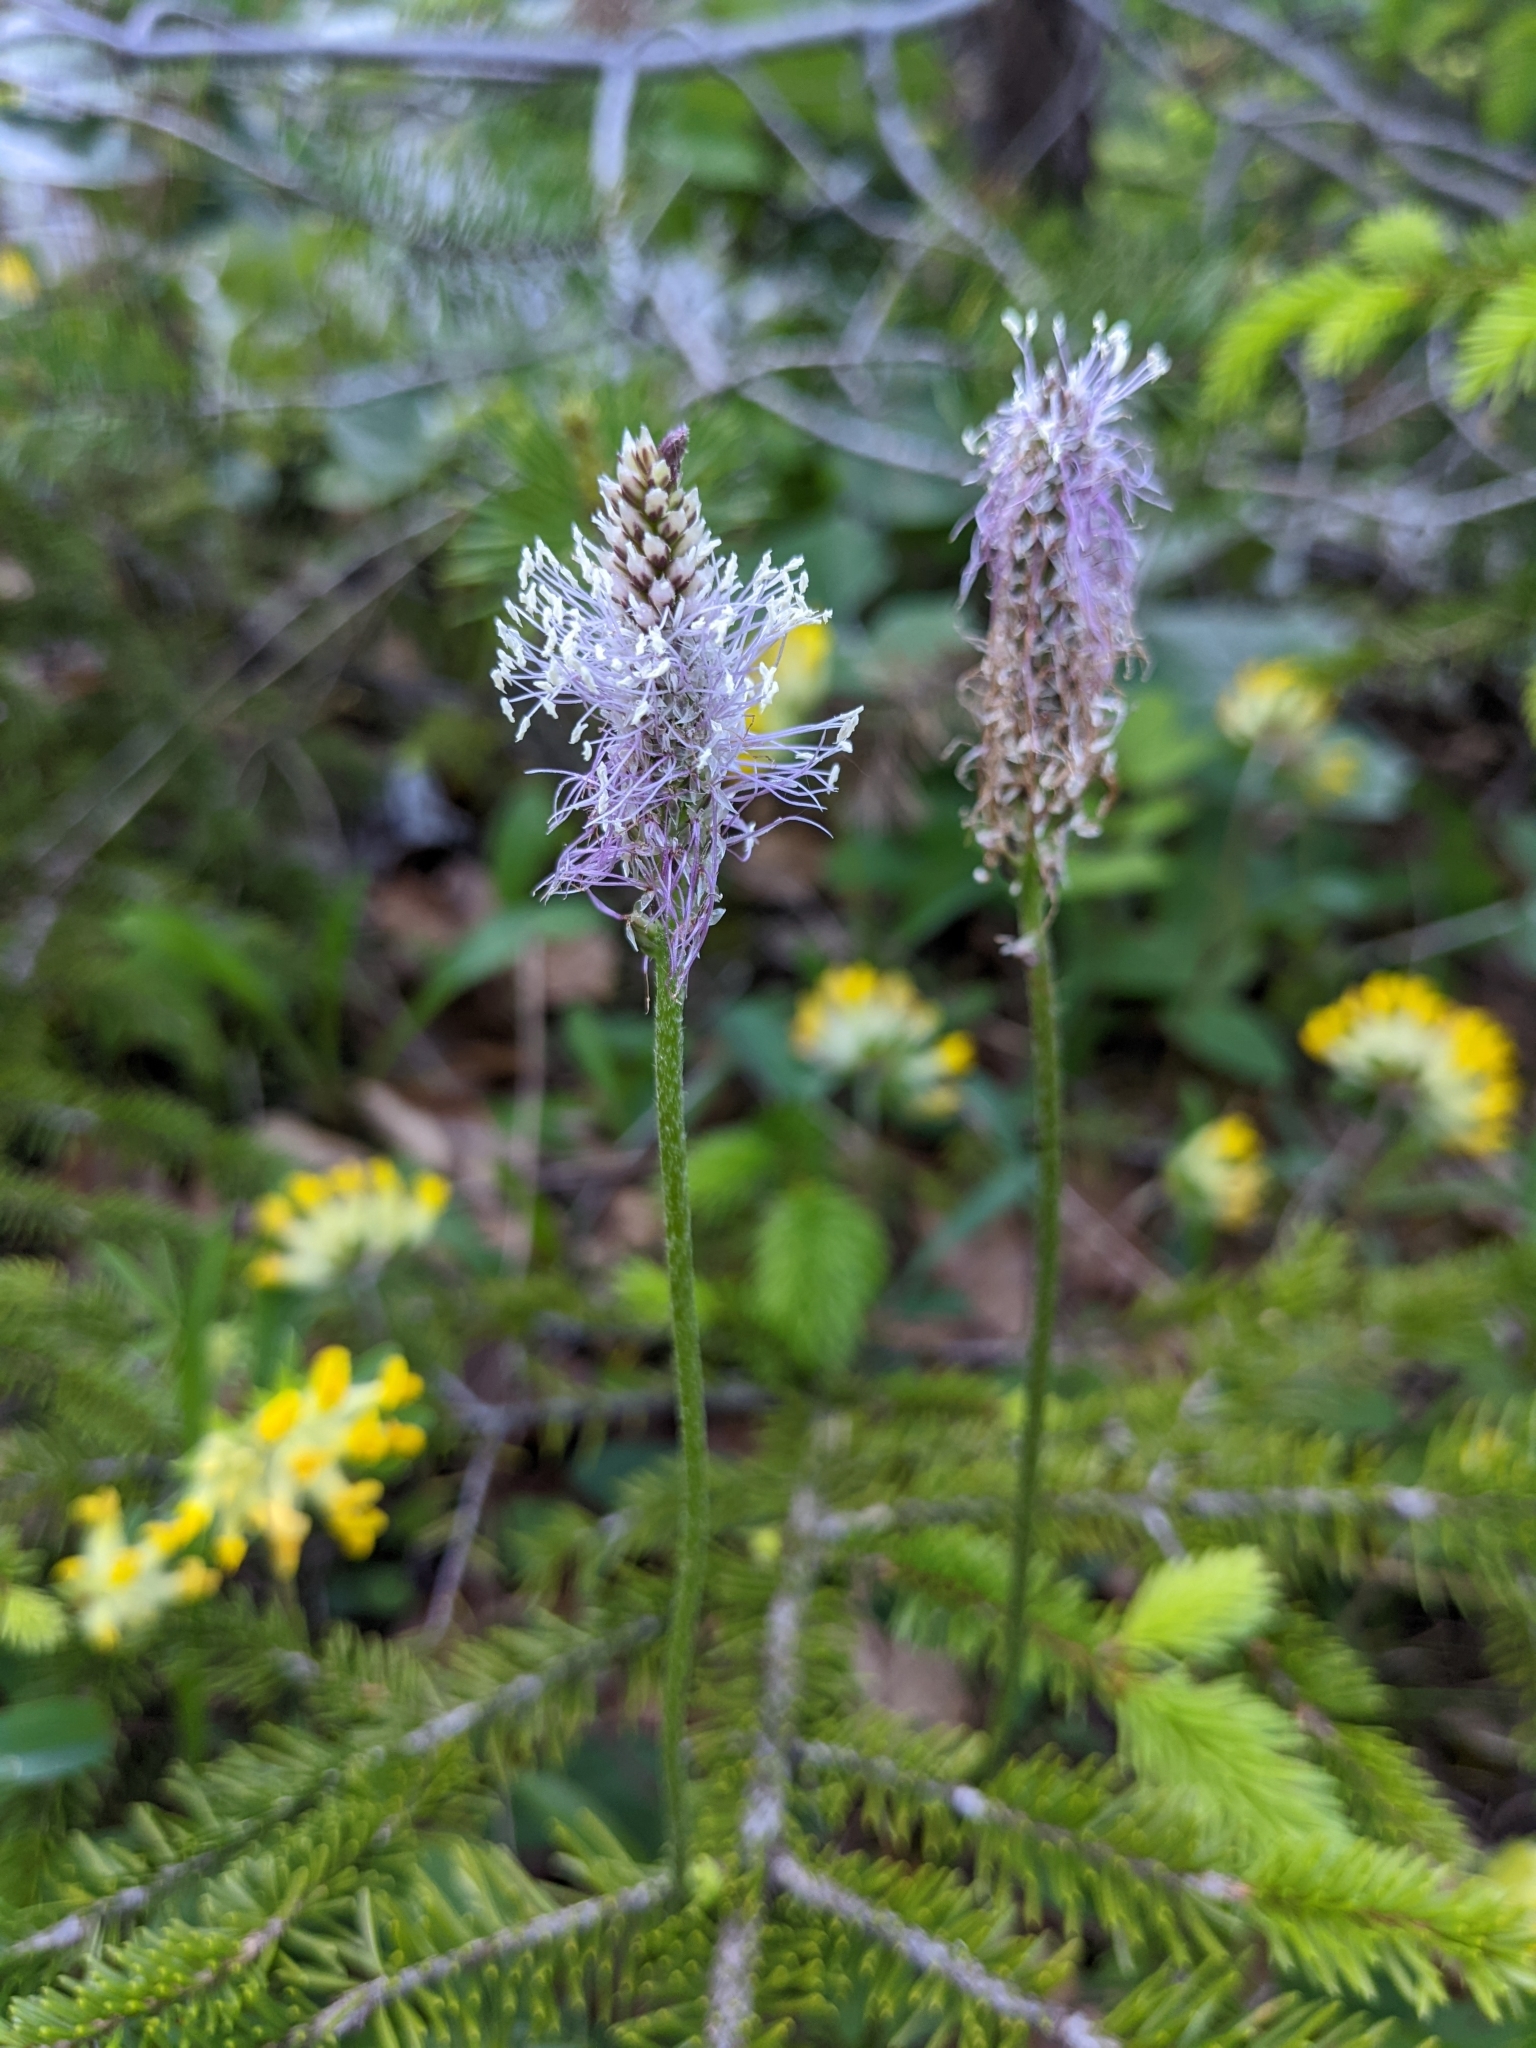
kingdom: Plantae
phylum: Tracheophyta
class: Magnoliopsida
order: Lamiales
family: Plantaginaceae
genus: Plantago
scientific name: Plantago media
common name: Hoary plantain
